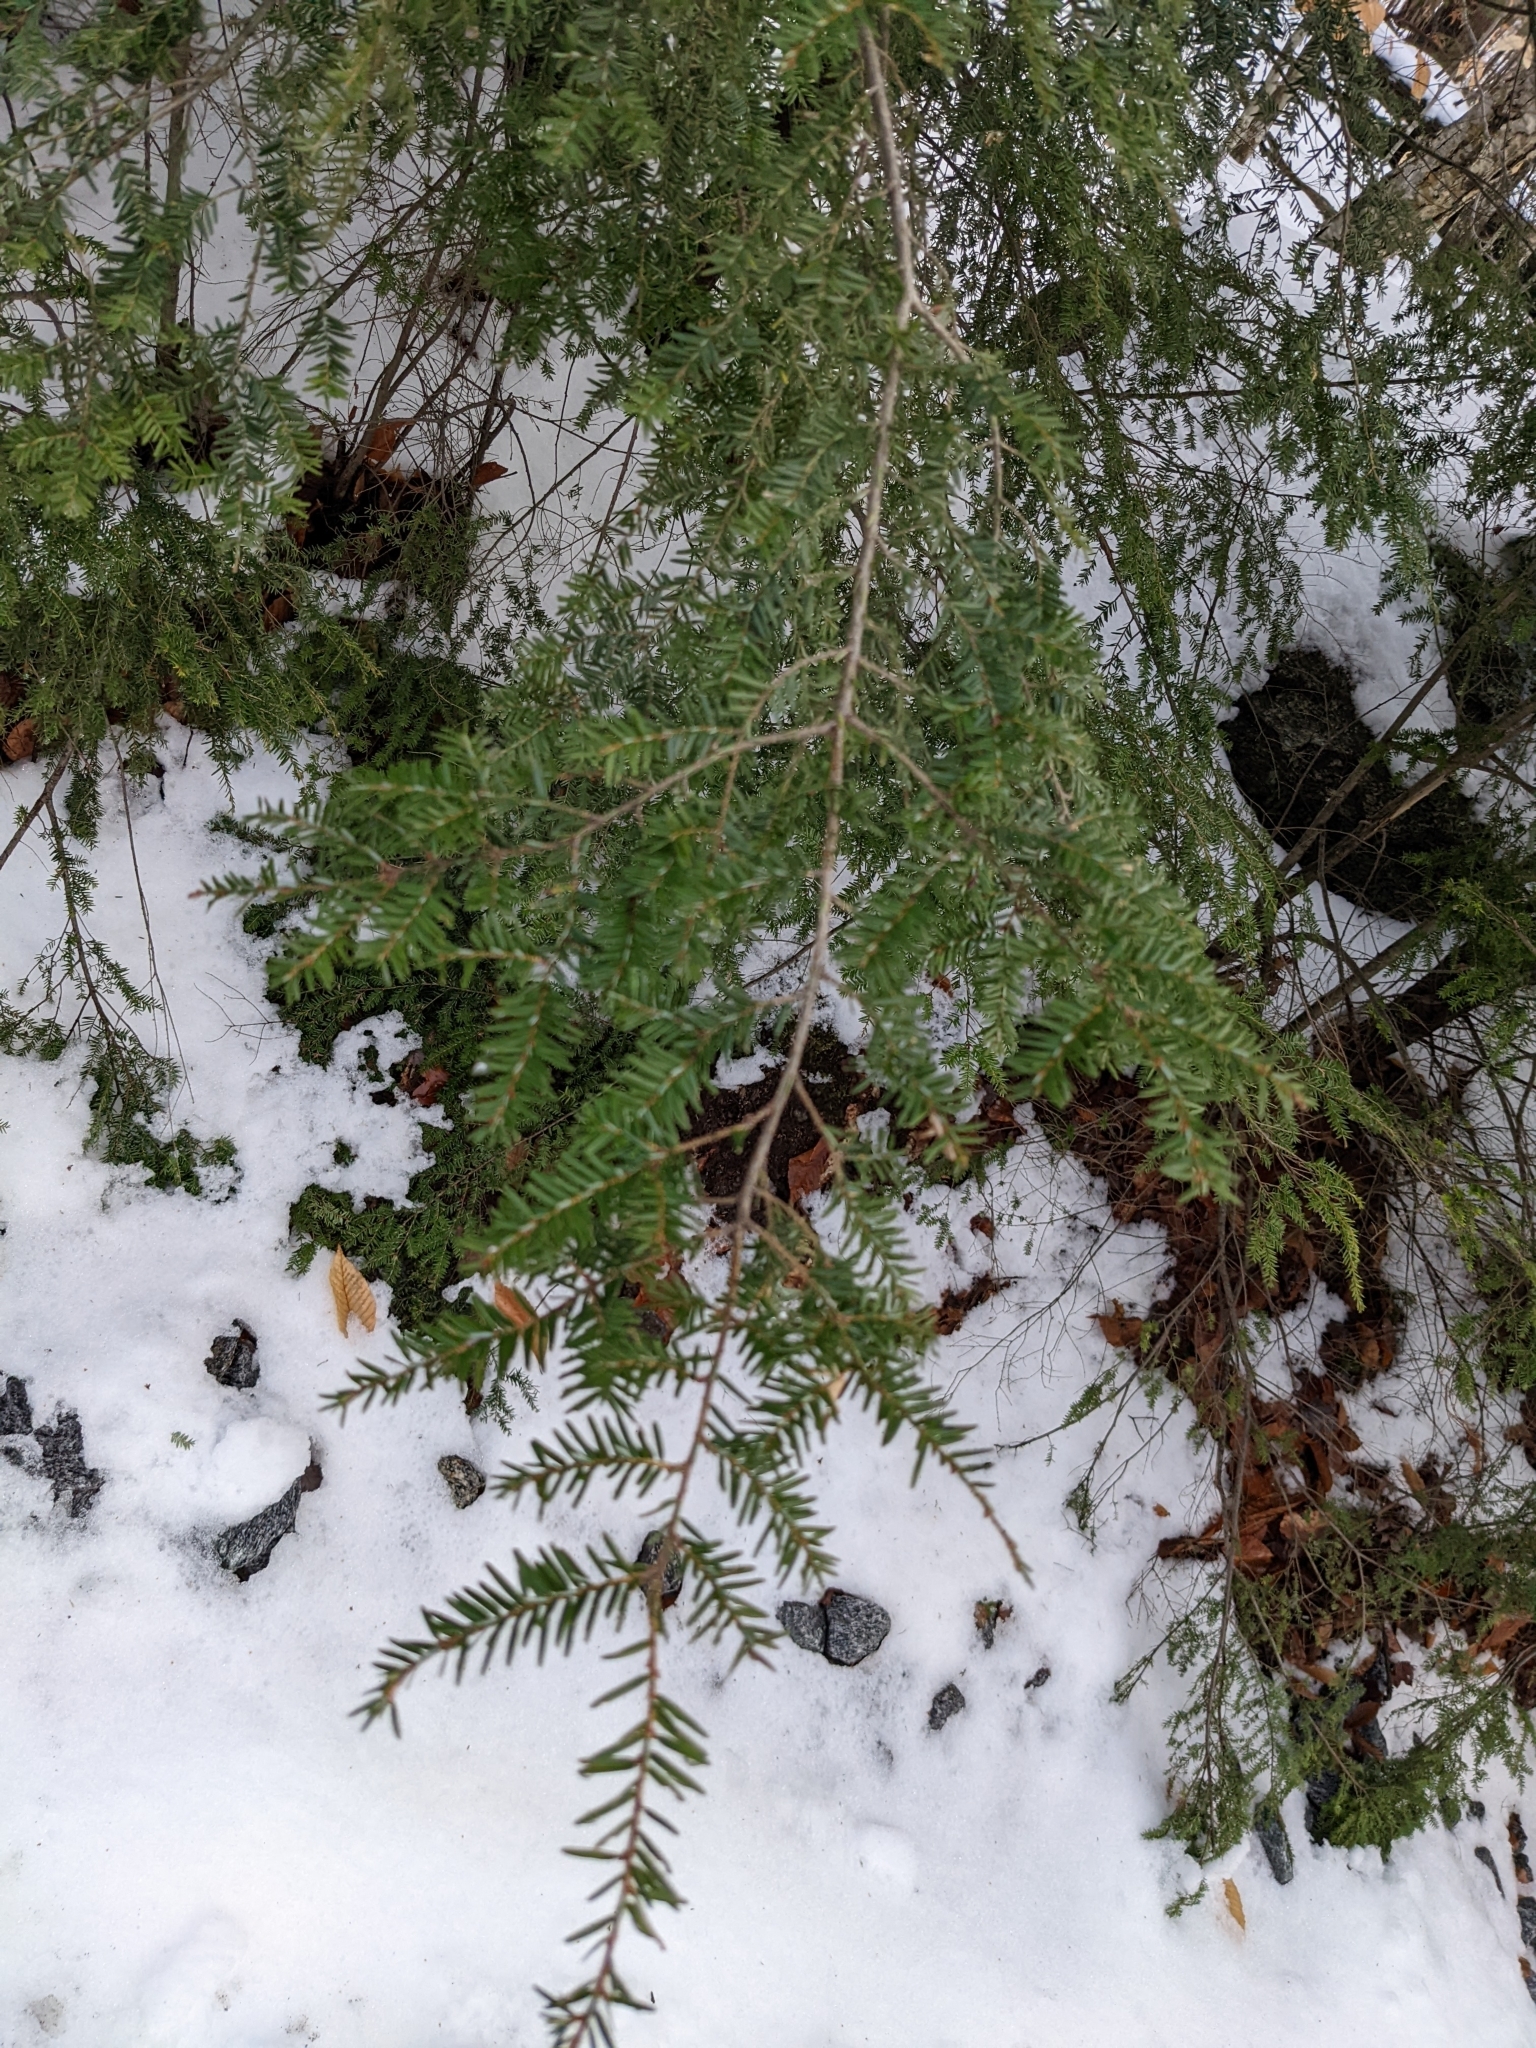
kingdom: Plantae
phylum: Tracheophyta
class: Pinopsida
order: Pinales
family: Pinaceae
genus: Tsuga
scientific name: Tsuga canadensis
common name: Eastern hemlock
